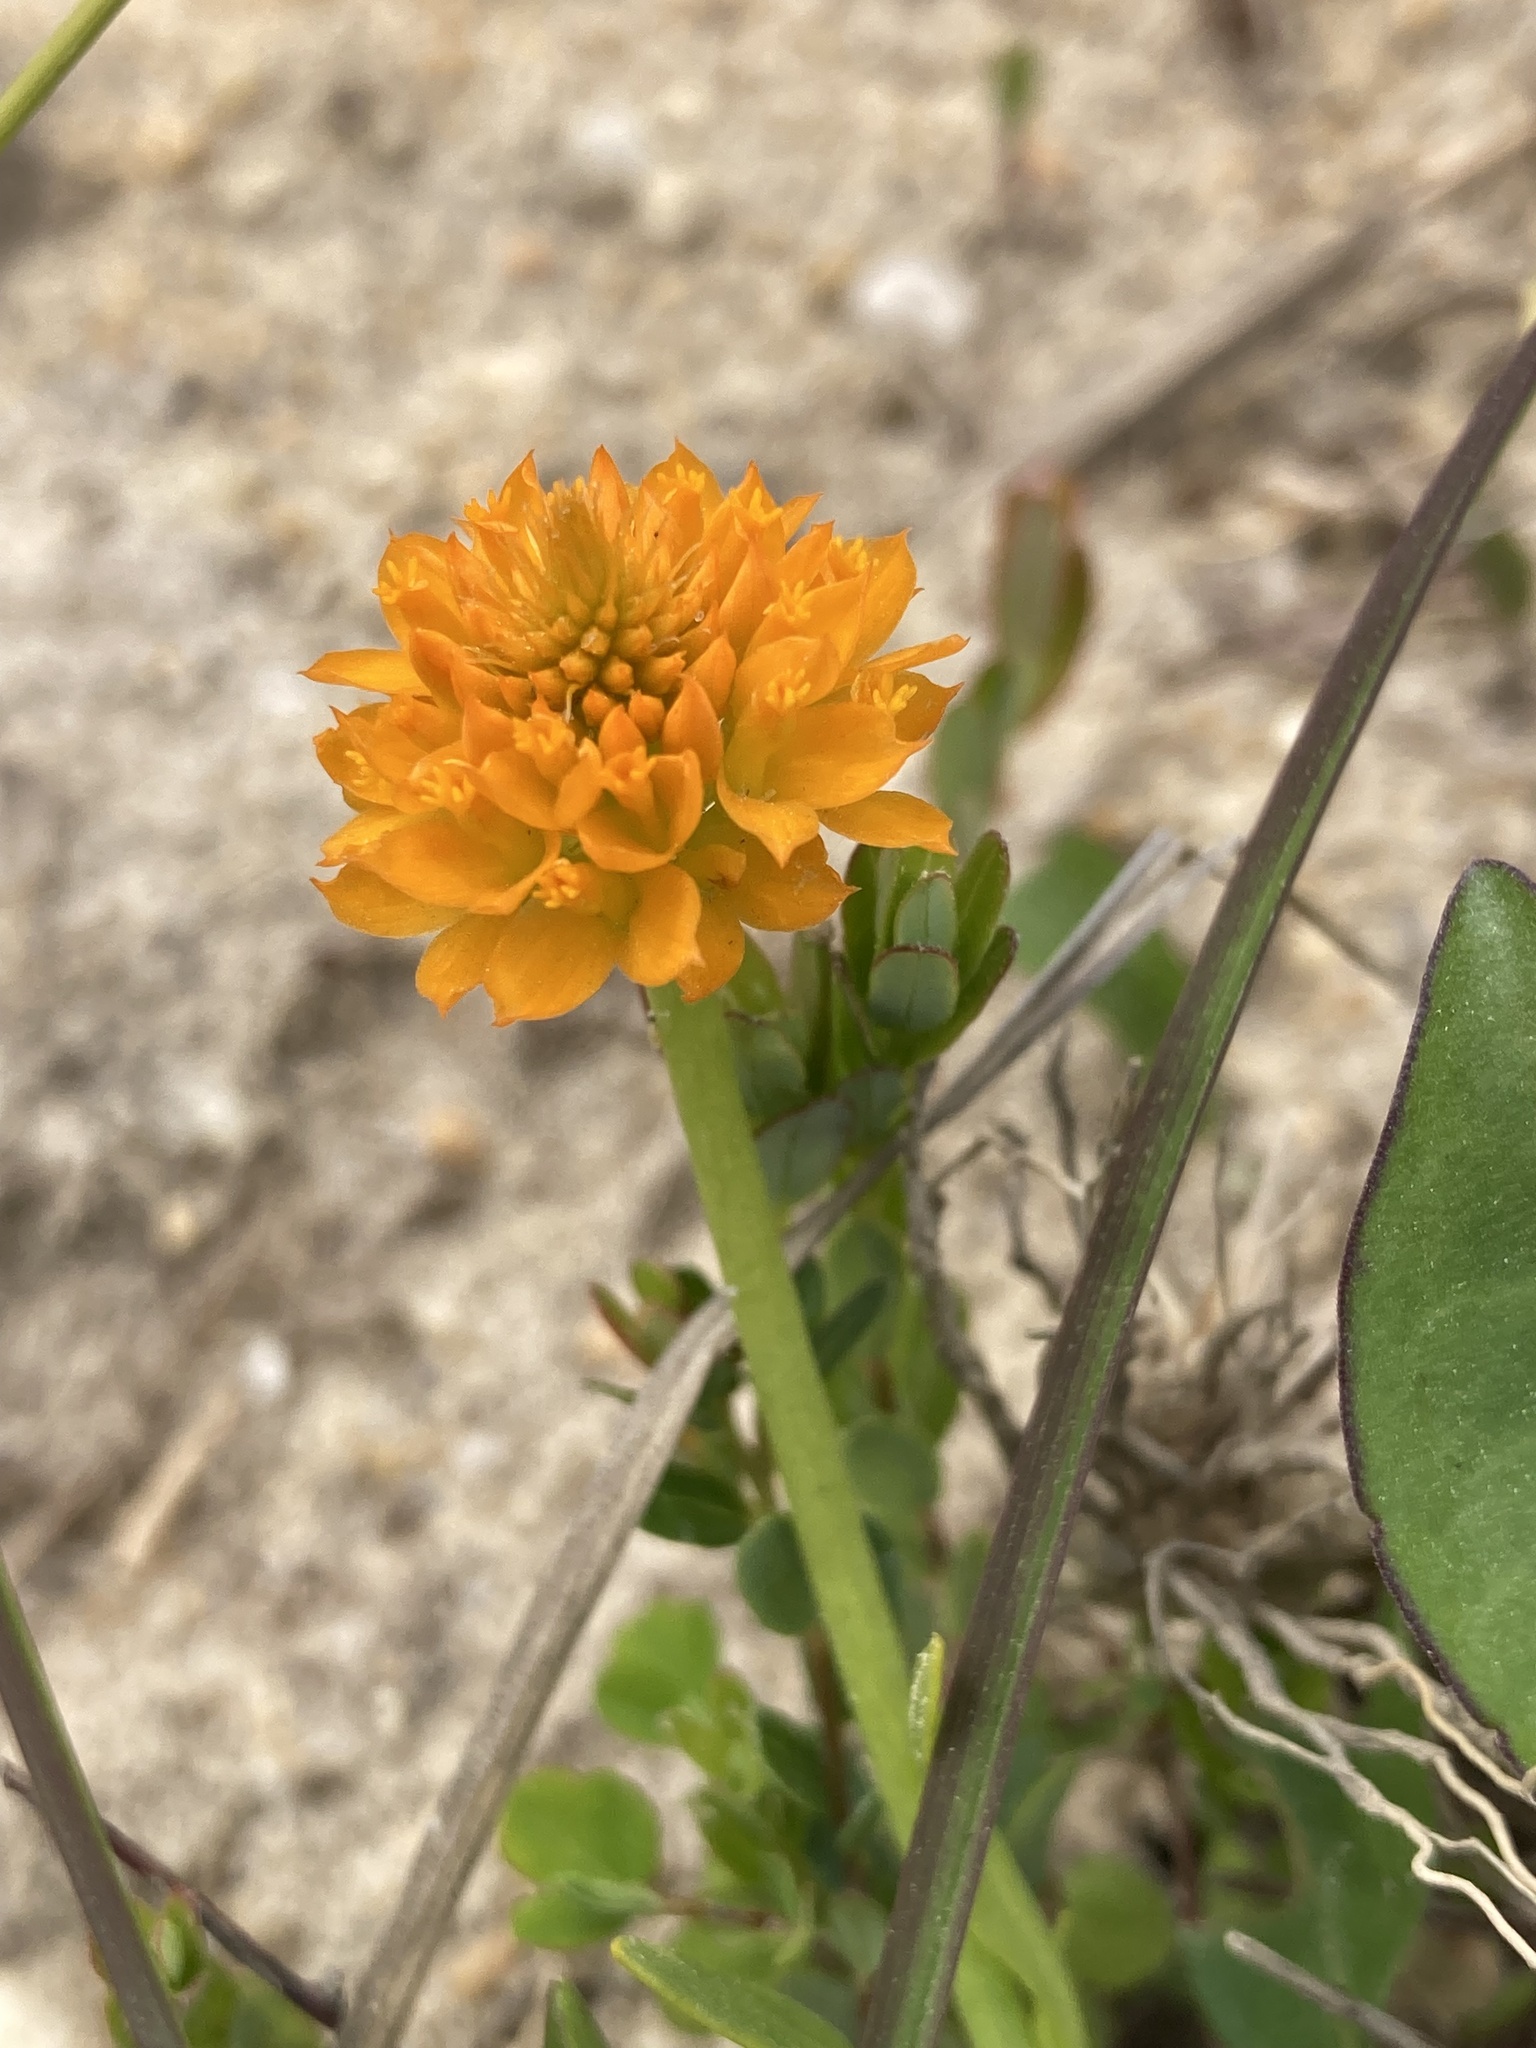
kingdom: Plantae
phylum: Tracheophyta
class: Magnoliopsida
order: Fabales
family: Polygalaceae
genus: Polygala
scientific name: Polygala lutea
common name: Orange milkwort
